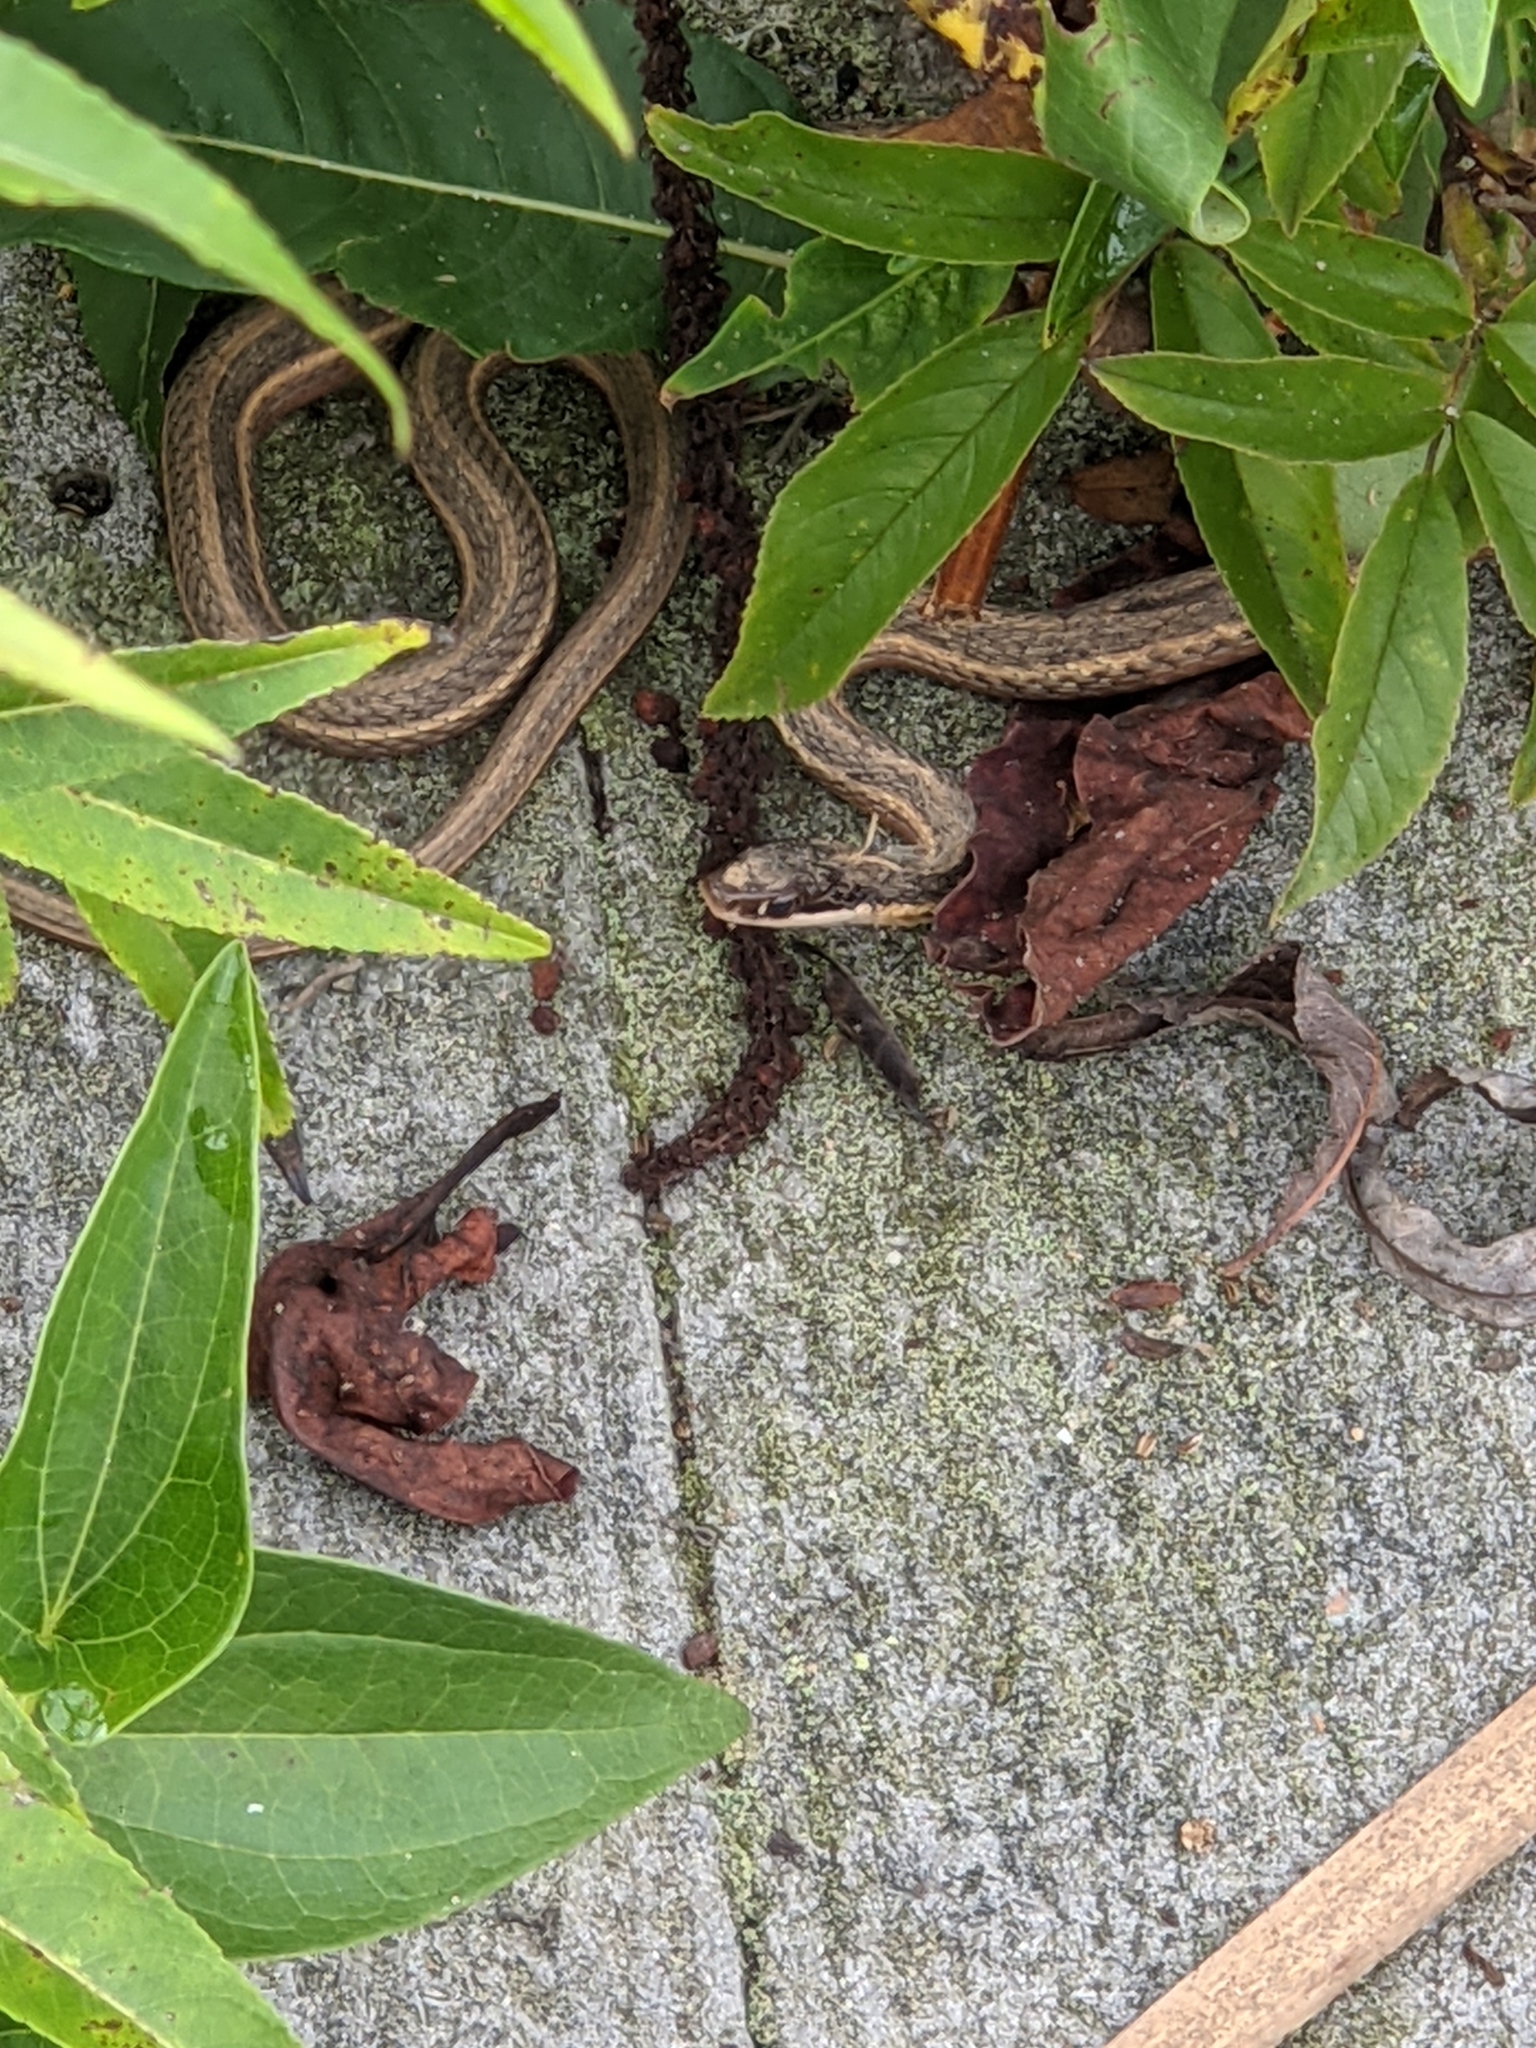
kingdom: Animalia
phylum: Chordata
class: Squamata
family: Colubridae
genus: Thamnophis
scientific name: Thamnophis saurita
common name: Eastern ribbonsnake
